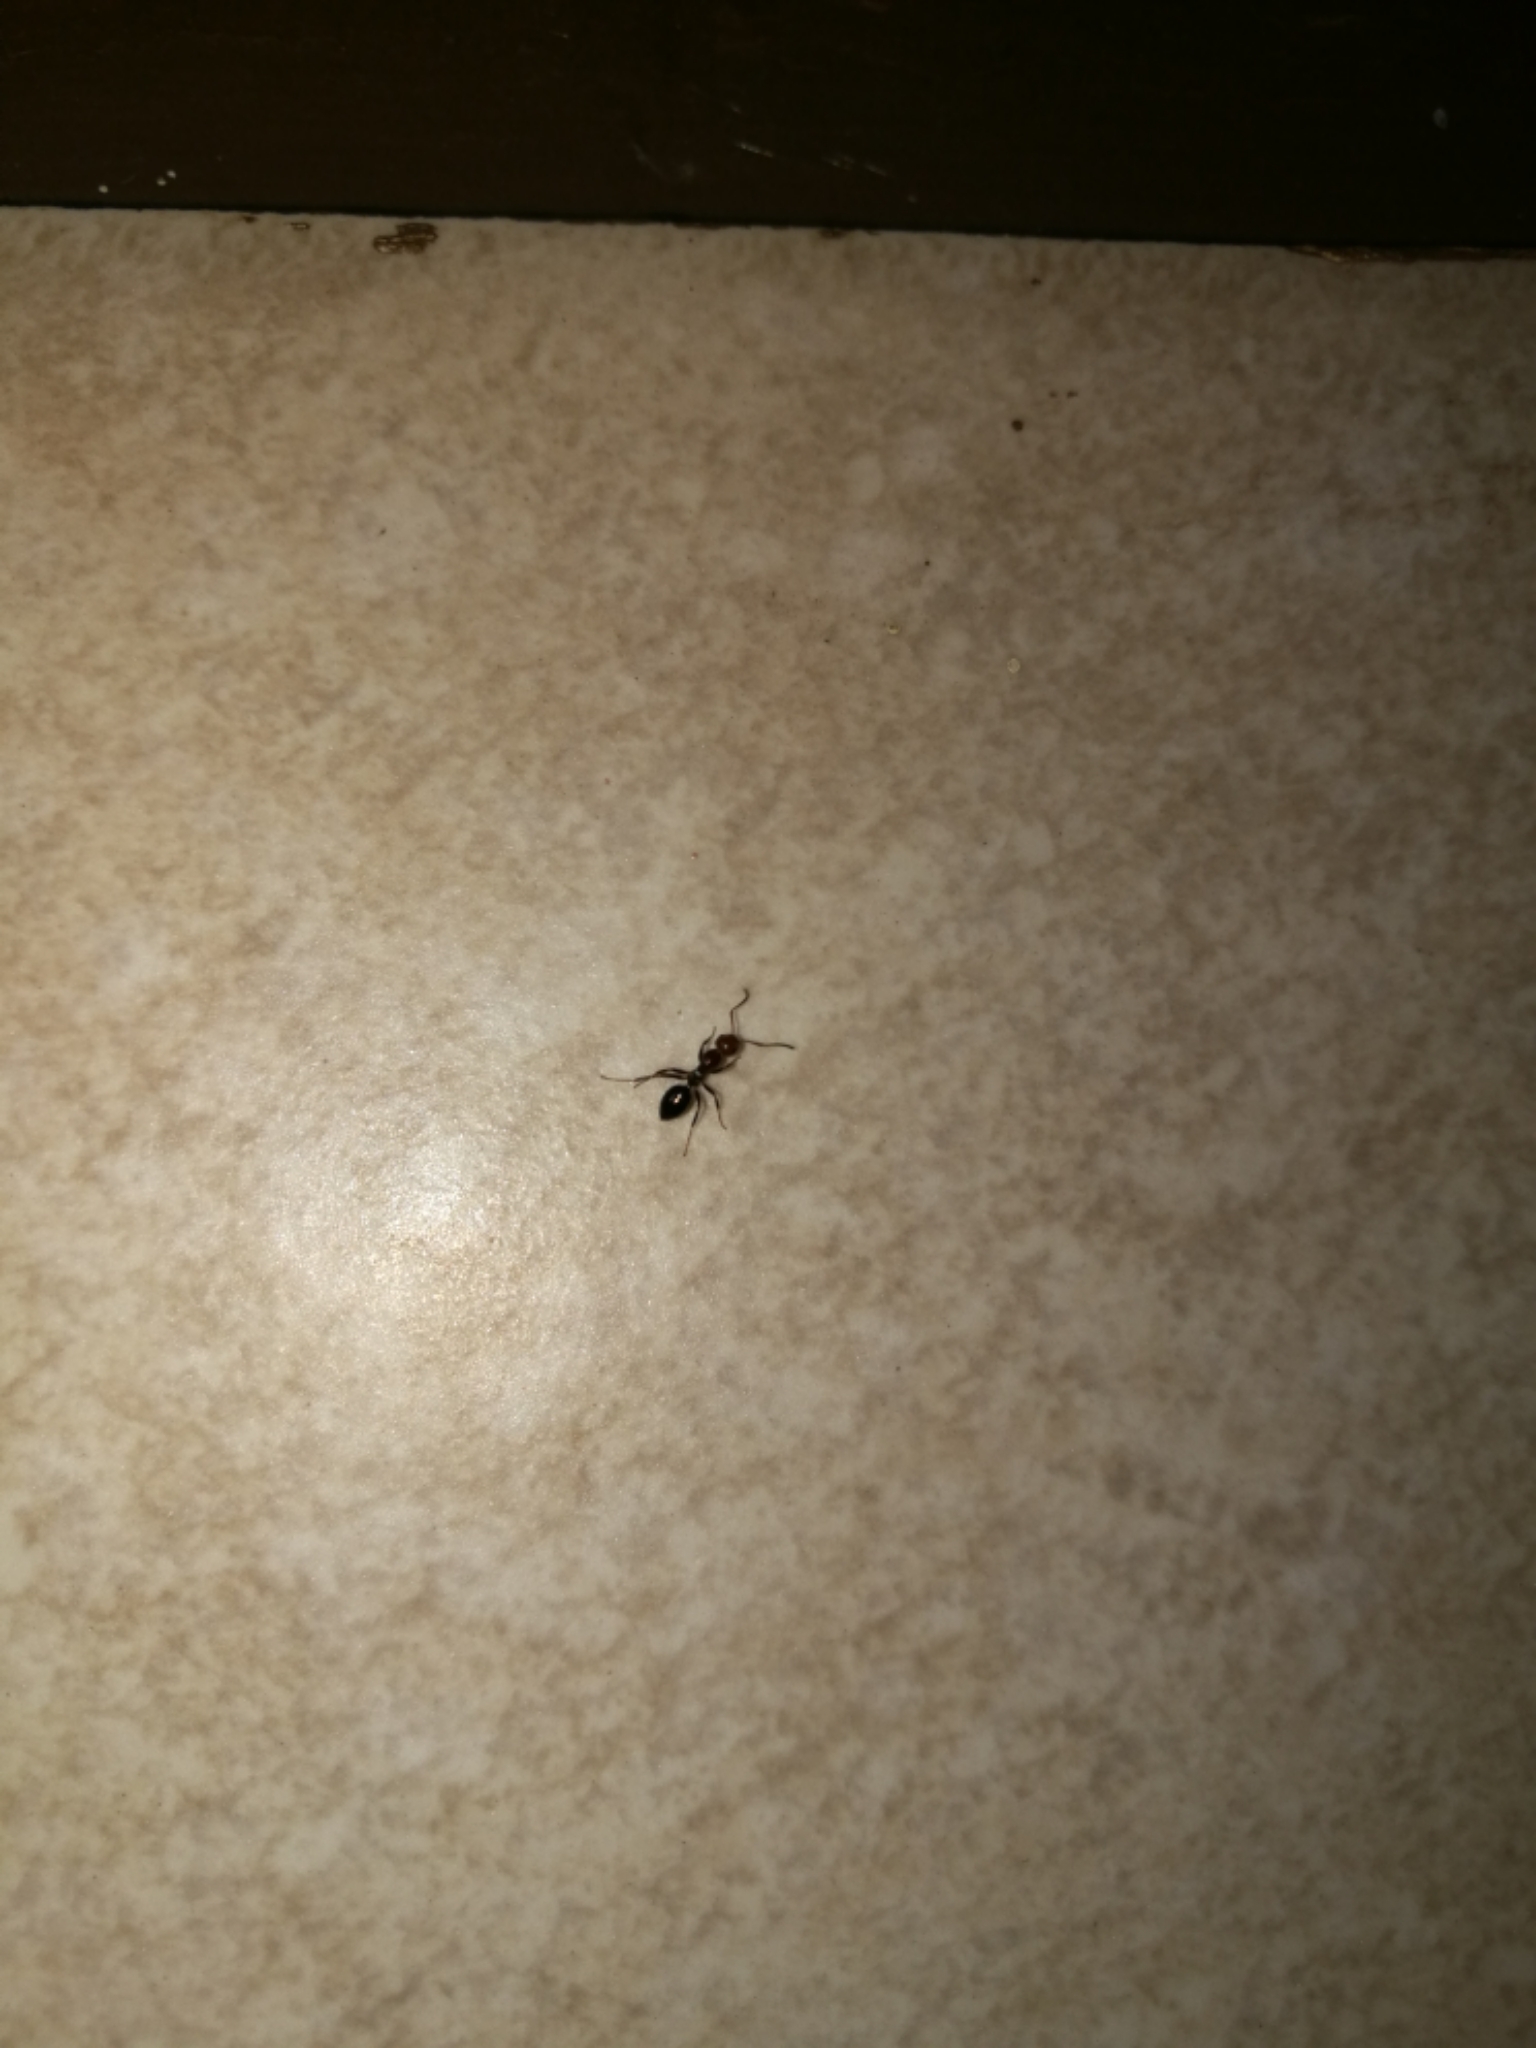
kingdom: Animalia
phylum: Arthropoda
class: Insecta
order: Hymenoptera
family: Formicidae
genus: Camponotus
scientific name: Camponotus lateralis
